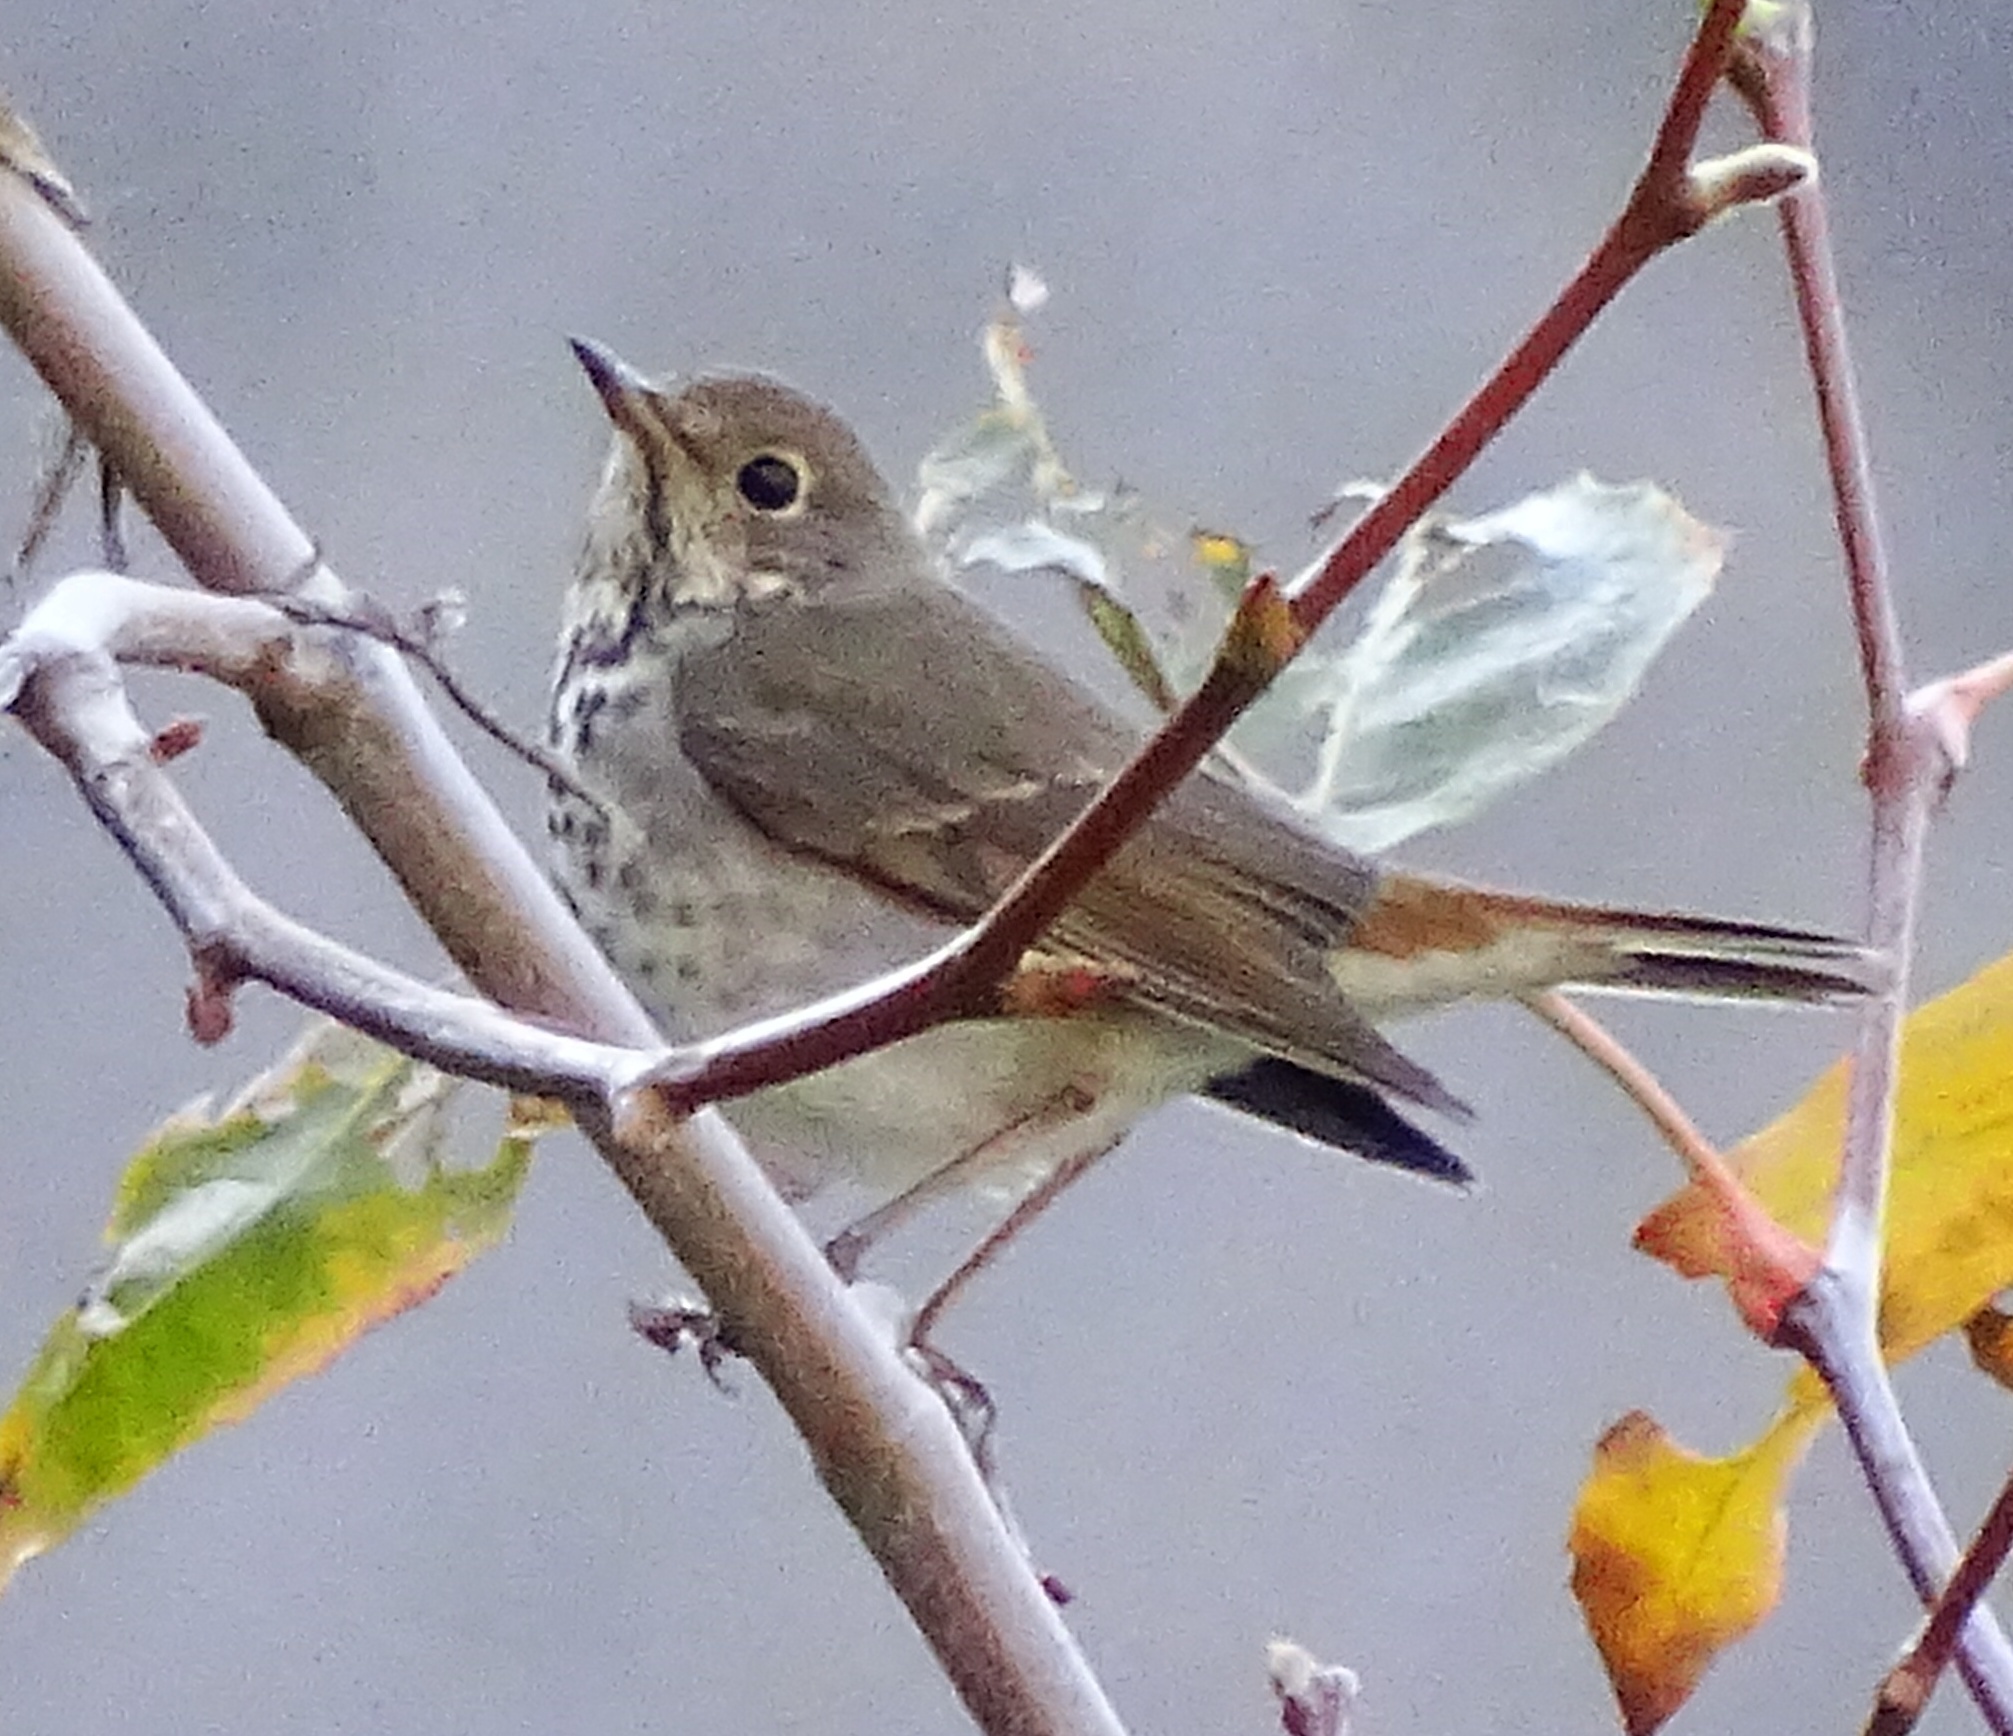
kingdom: Animalia
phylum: Chordata
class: Aves
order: Passeriformes
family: Turdidae
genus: Catharus
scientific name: Catharus guttatus
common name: Hermit thrush
